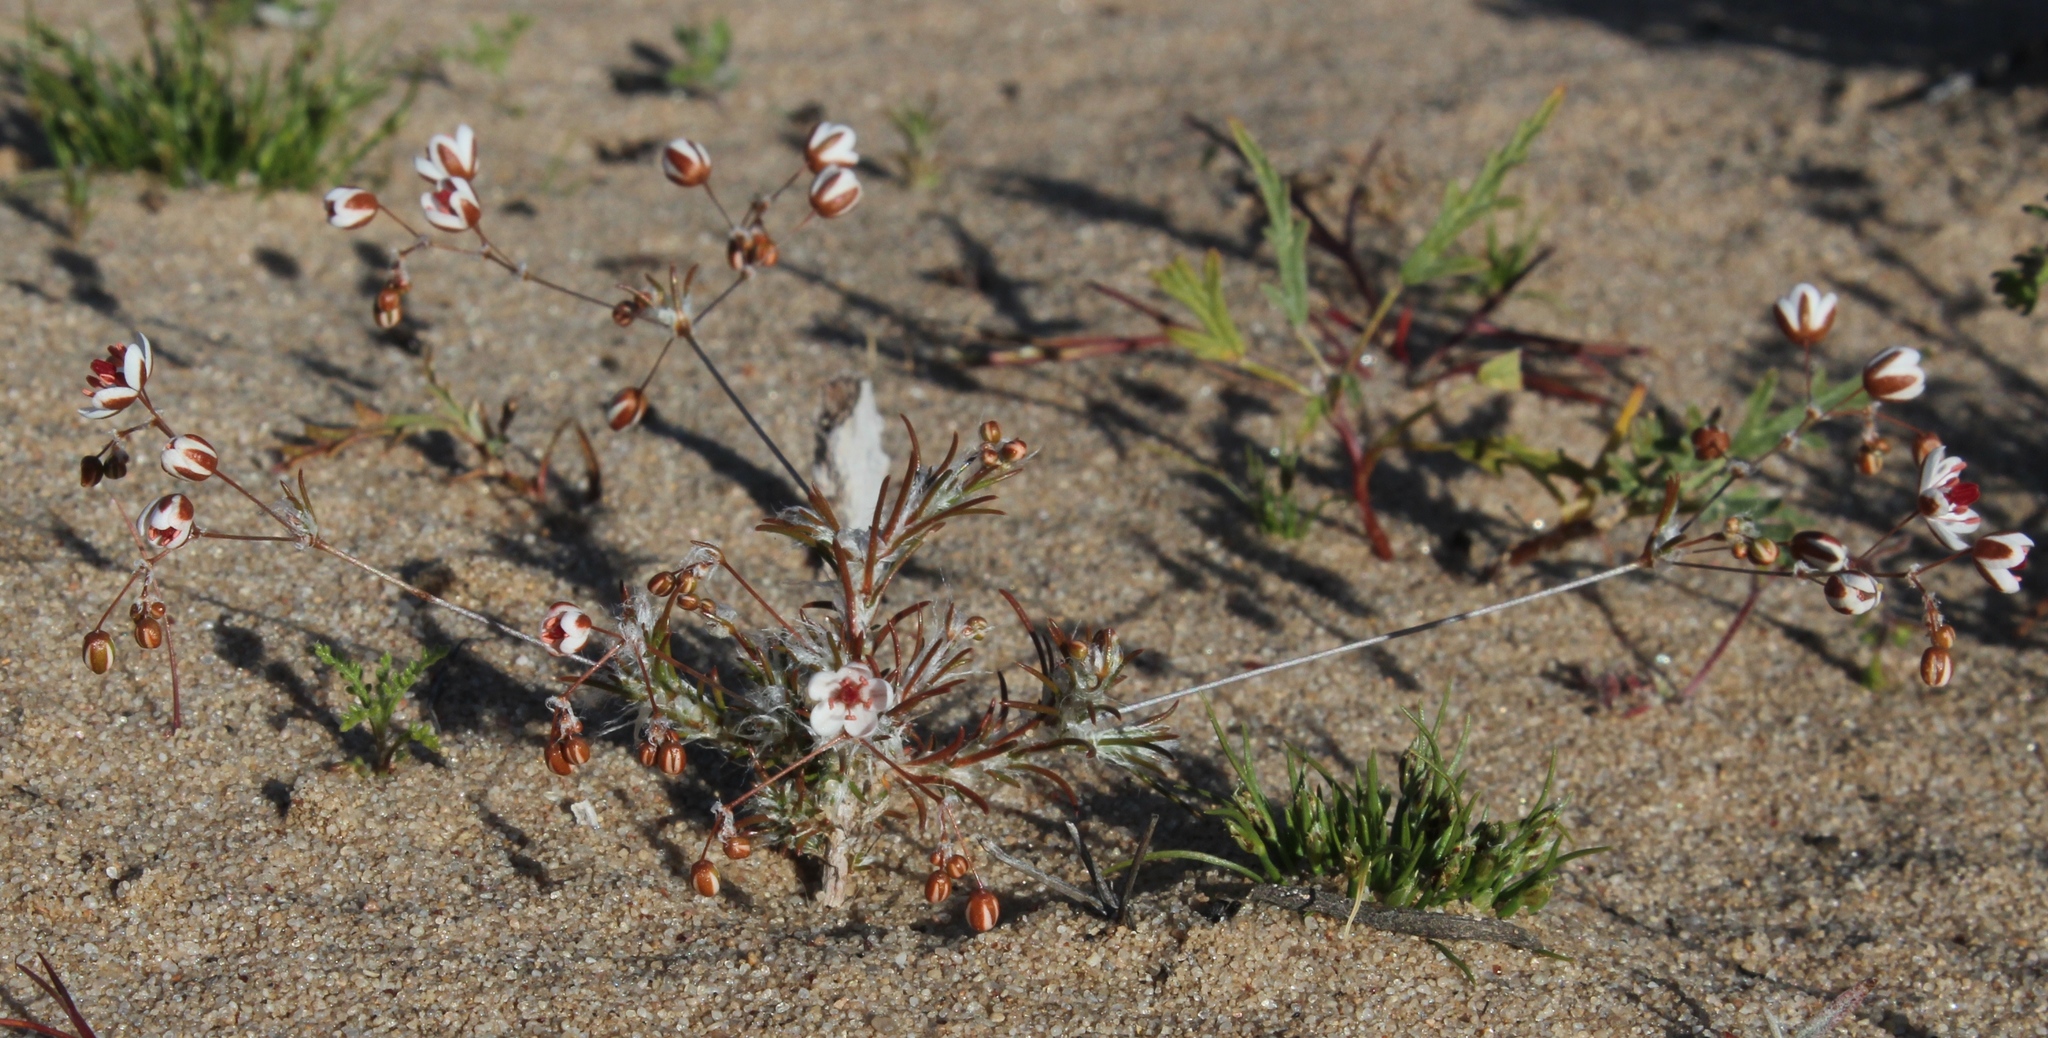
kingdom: Plantae
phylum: Tracheophyta
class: Magnoliopsida
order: Caryophyllales
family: Molluginaceae
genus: Pharnaceum
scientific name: Pharnaceum elongatum
